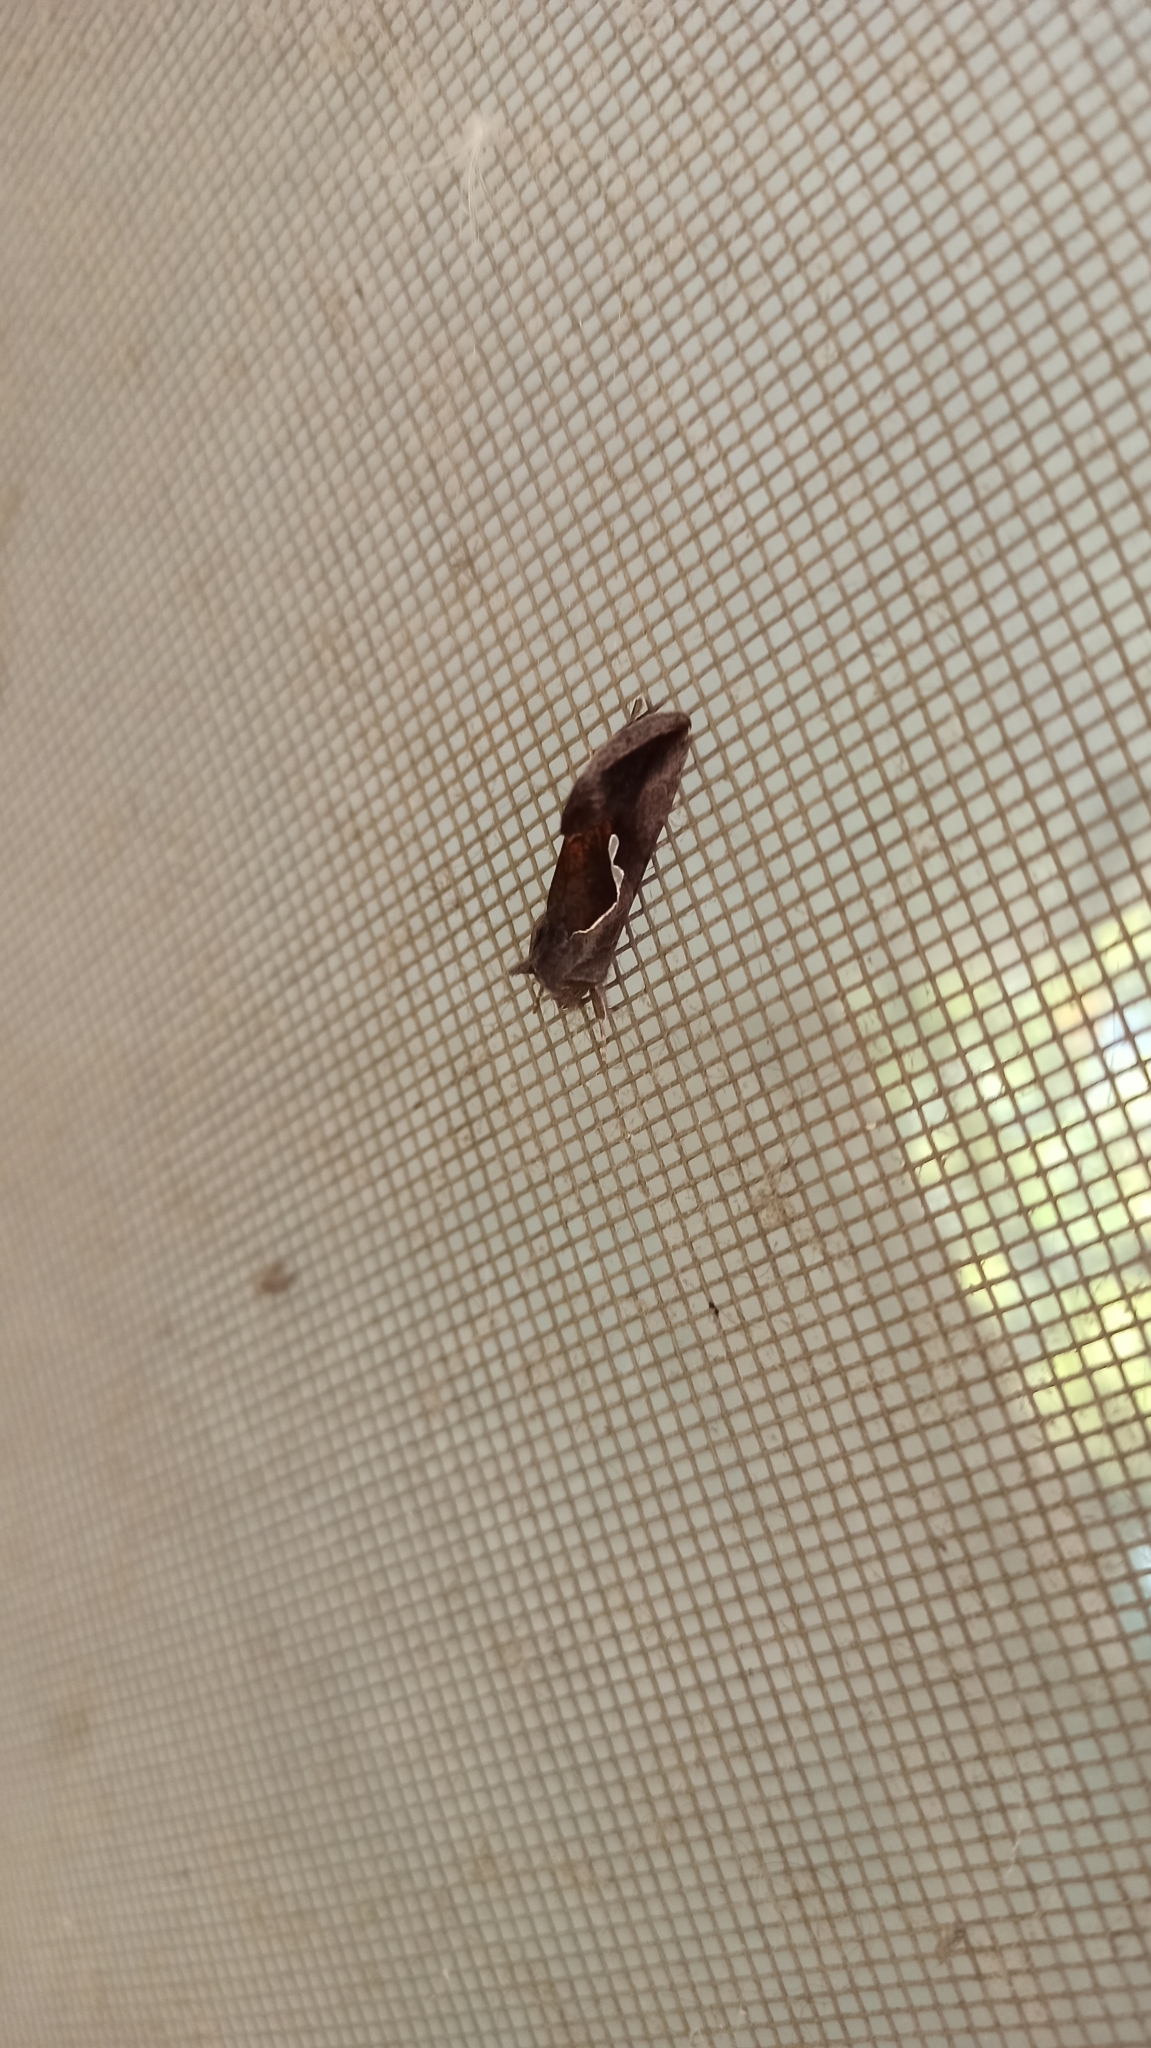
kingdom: Animalia
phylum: Arthropoda
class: Insecta
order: Lepidoptera
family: Noctuidae
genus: Macdunnoughia
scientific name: Macdunnoughia confusa
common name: Dewick's plusia
